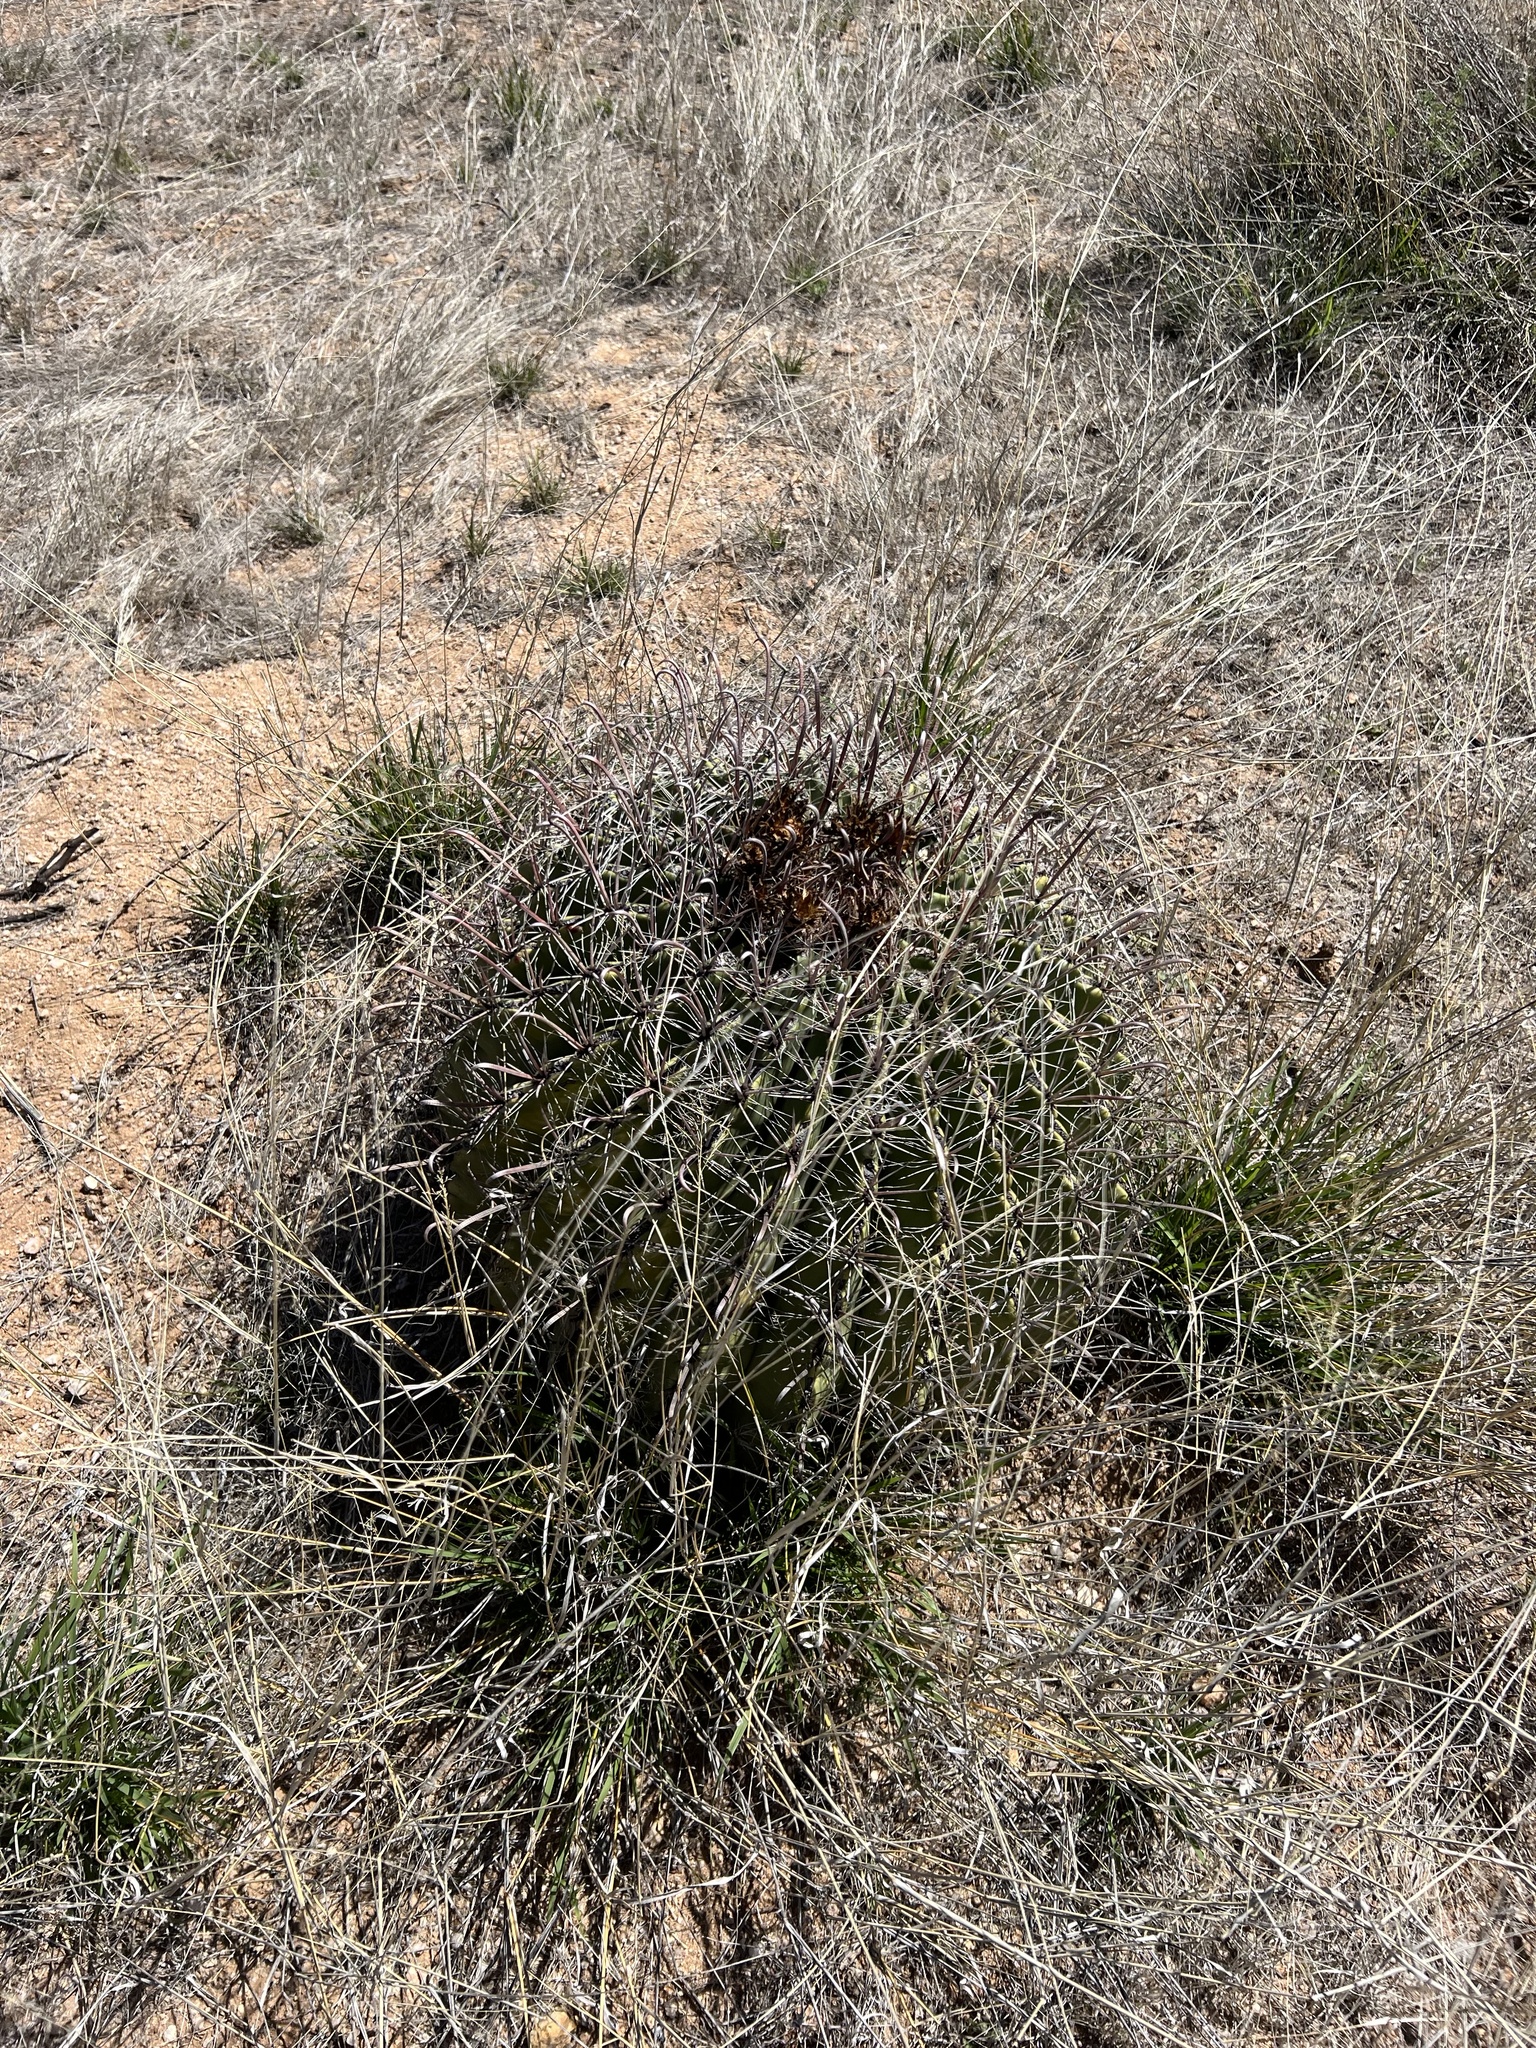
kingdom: Plantae
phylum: Tracheophyta
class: Magnoliopsida
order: Caryophyllales
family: Cactaceae
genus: Ferocactus
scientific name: Ferocactus wislizeni
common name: Candy barrel cactus
